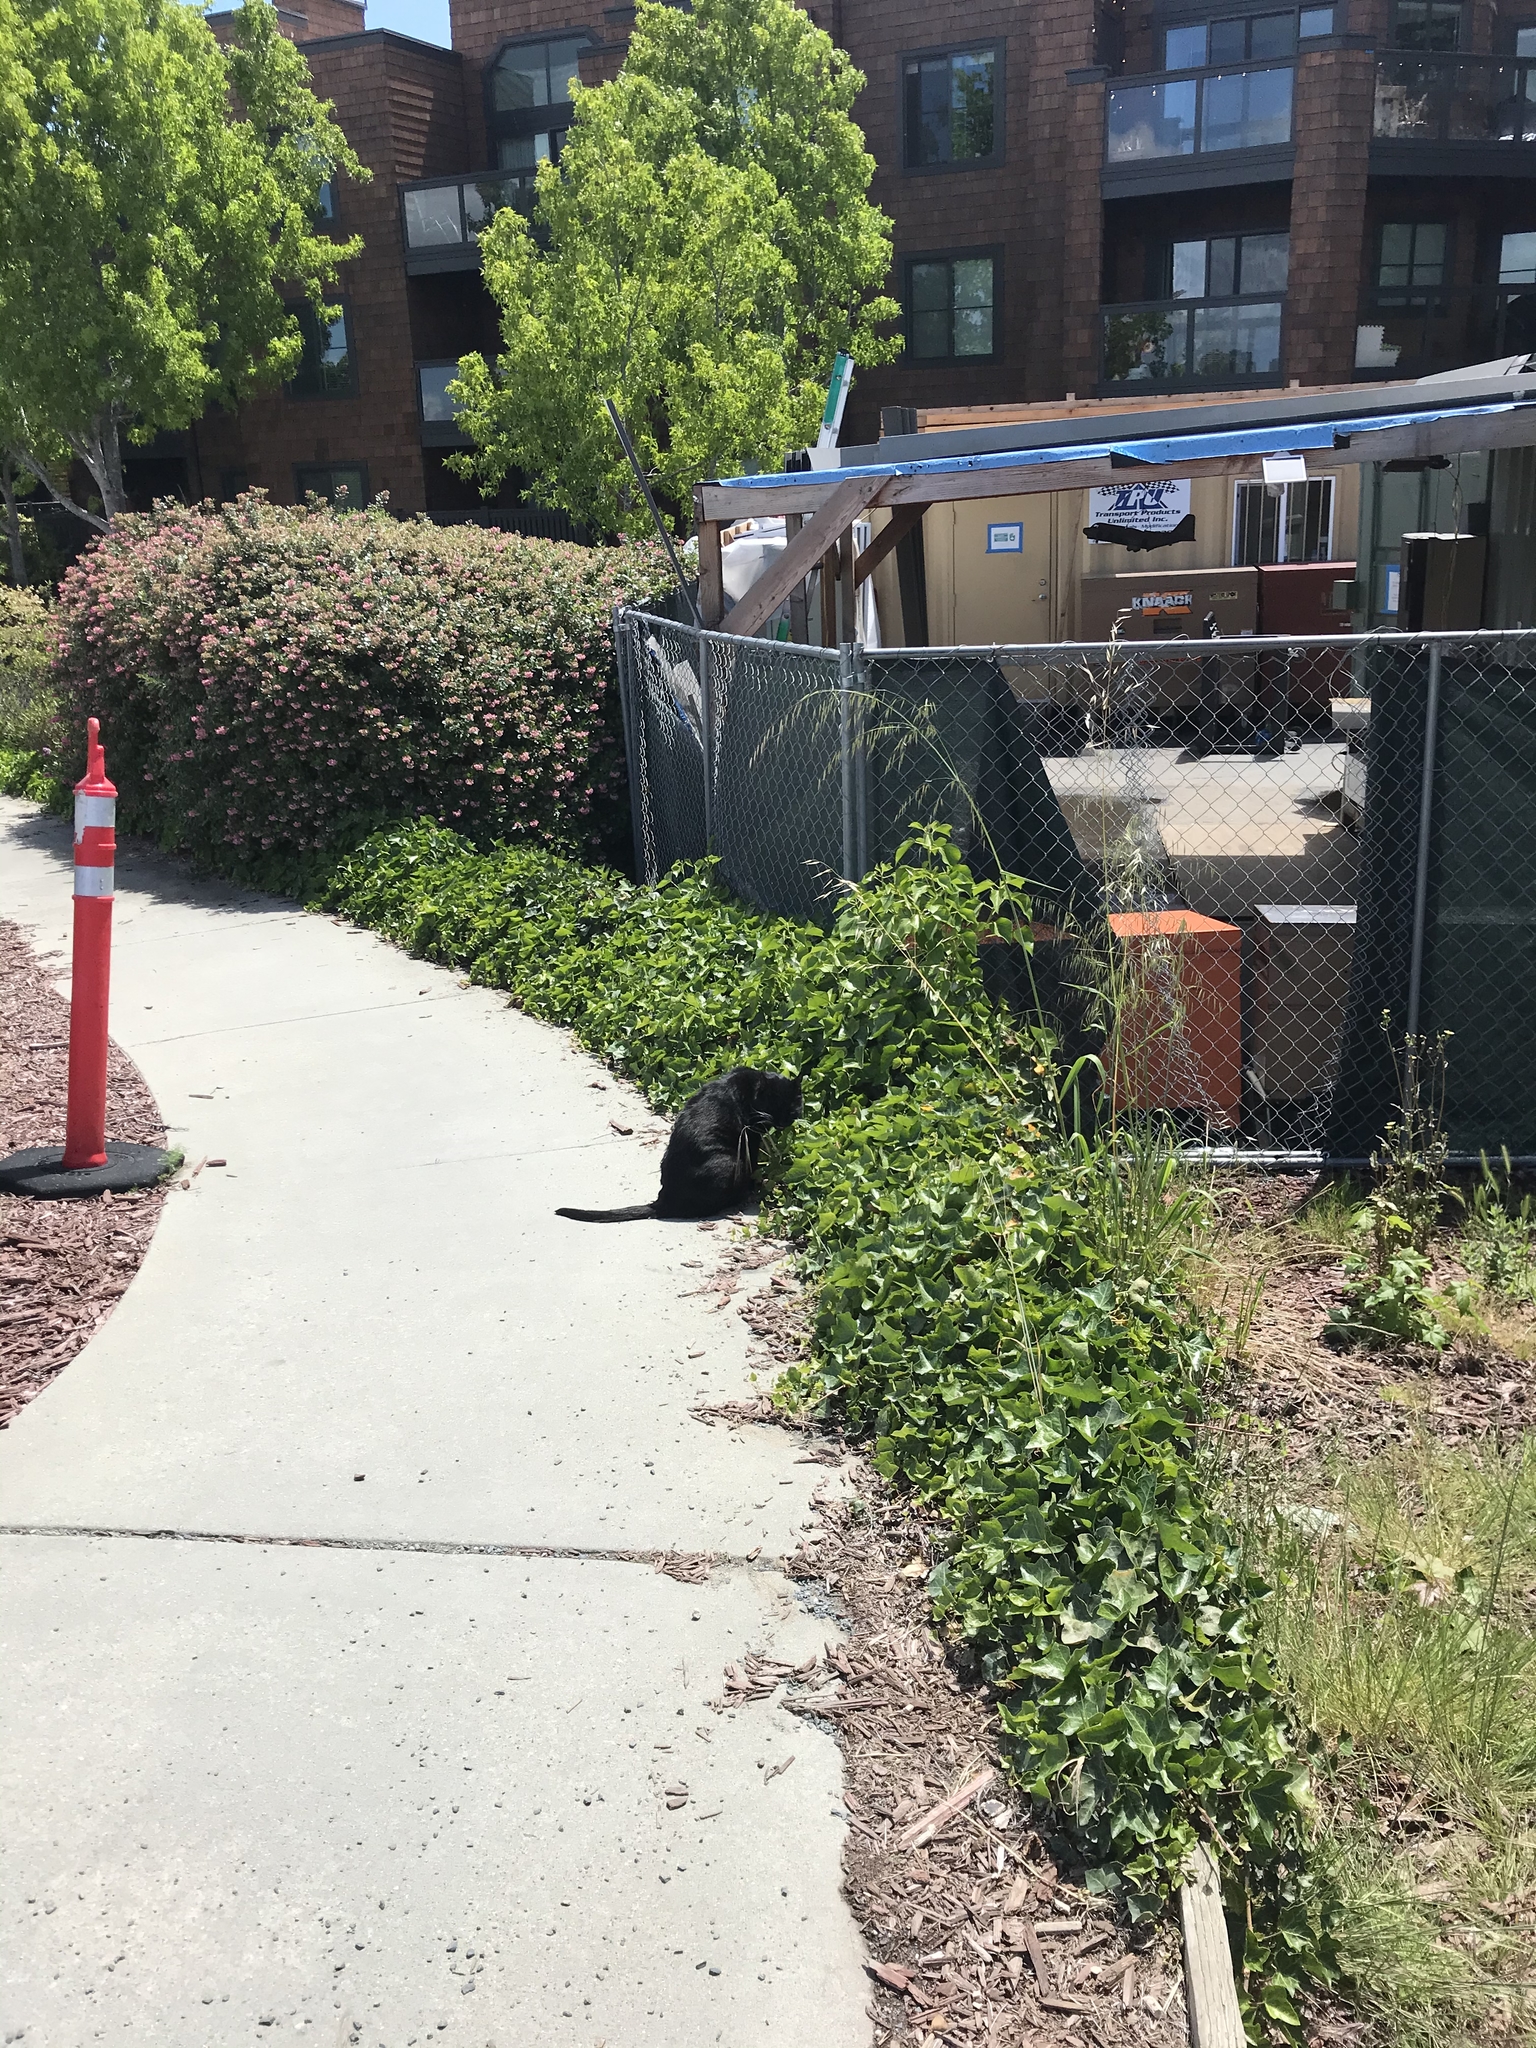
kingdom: Animalia
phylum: Chordata
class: Mammalia
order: Carnivora
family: Felidae
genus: Felis
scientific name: Felis catus
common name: Domestic cat
